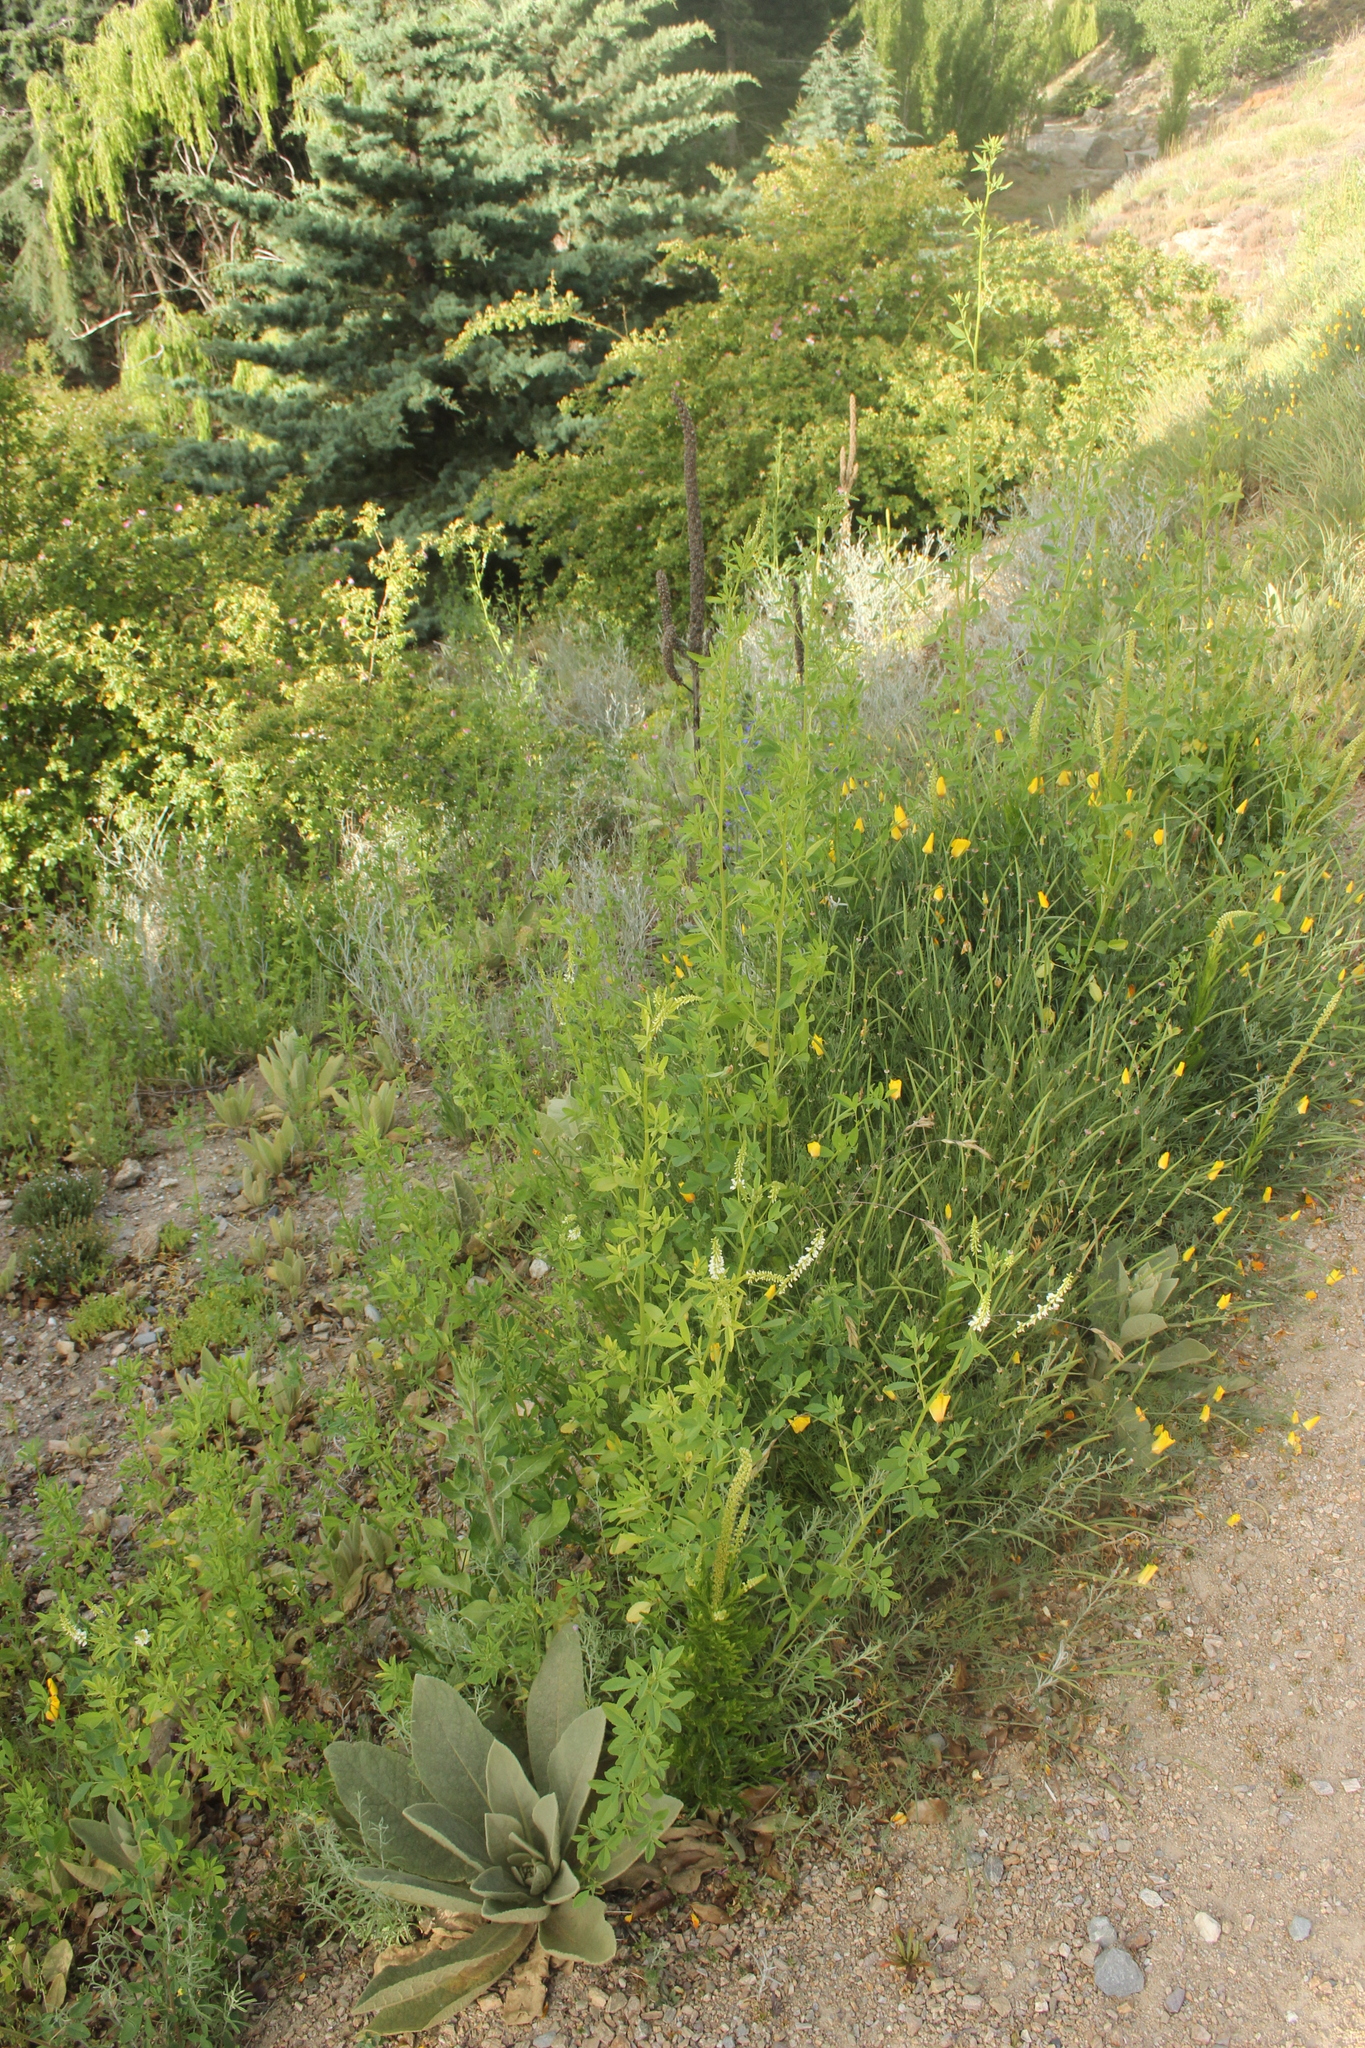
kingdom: Plantae
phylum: Tracheophyta
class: Magnoliopsida
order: Fabales
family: Fabaceae
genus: Melilotus
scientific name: Melilotus albus
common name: White melilot
